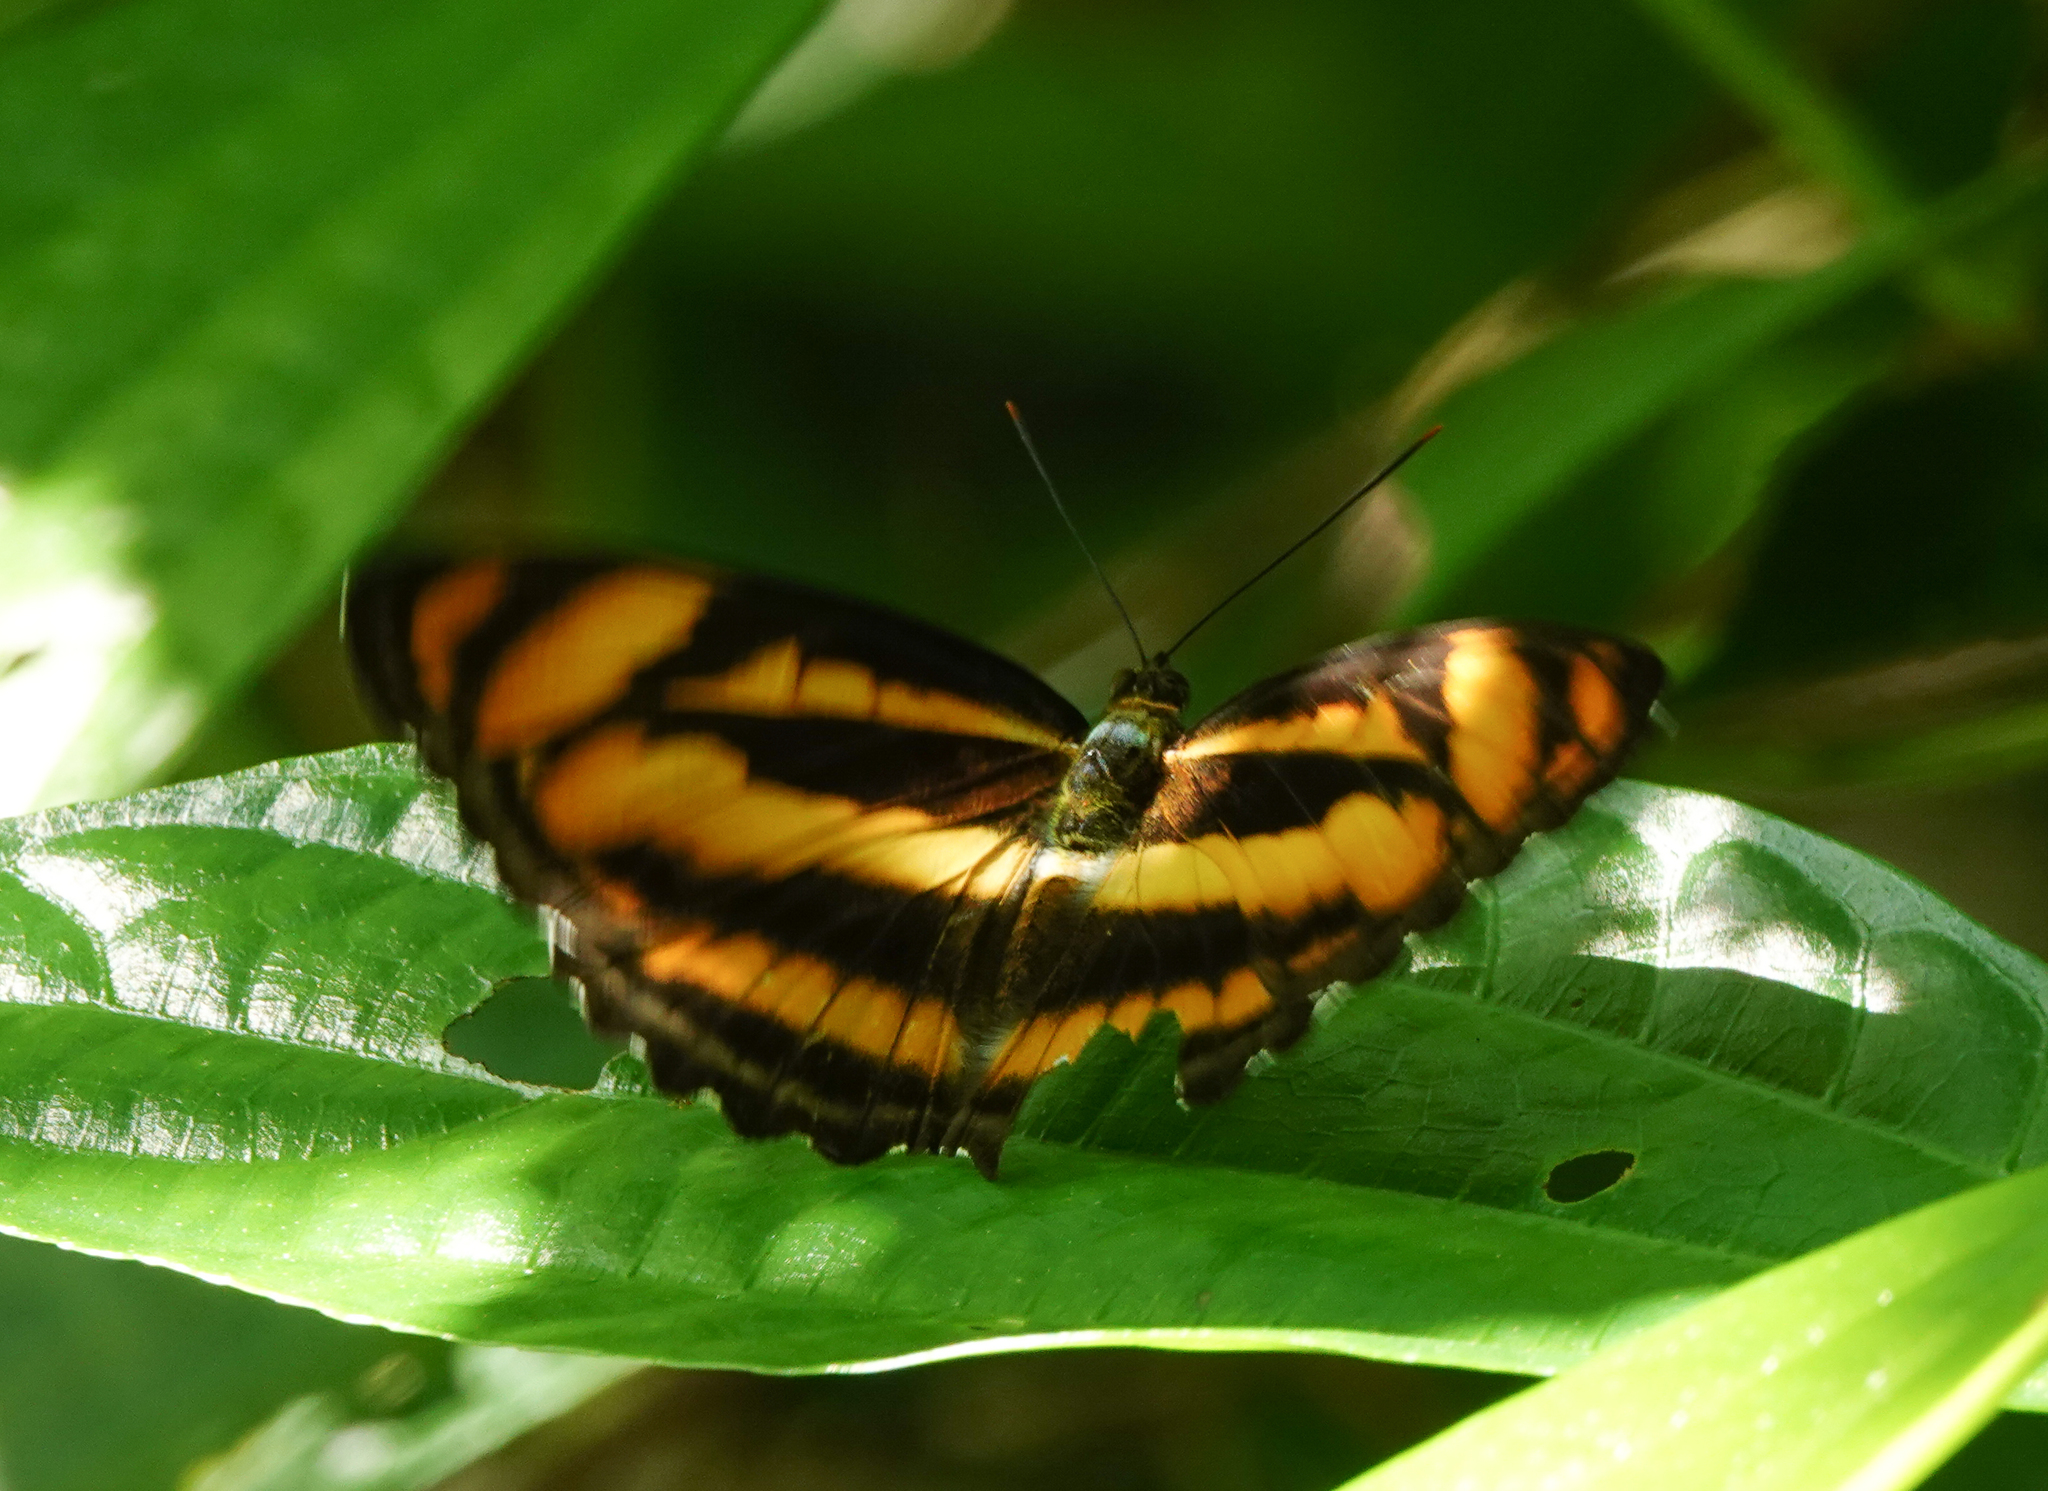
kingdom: Animalia
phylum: Arthropoda
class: Insecta
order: Lepidoptera
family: Nymphalidae
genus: Parathyma
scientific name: Parathyma nefte
